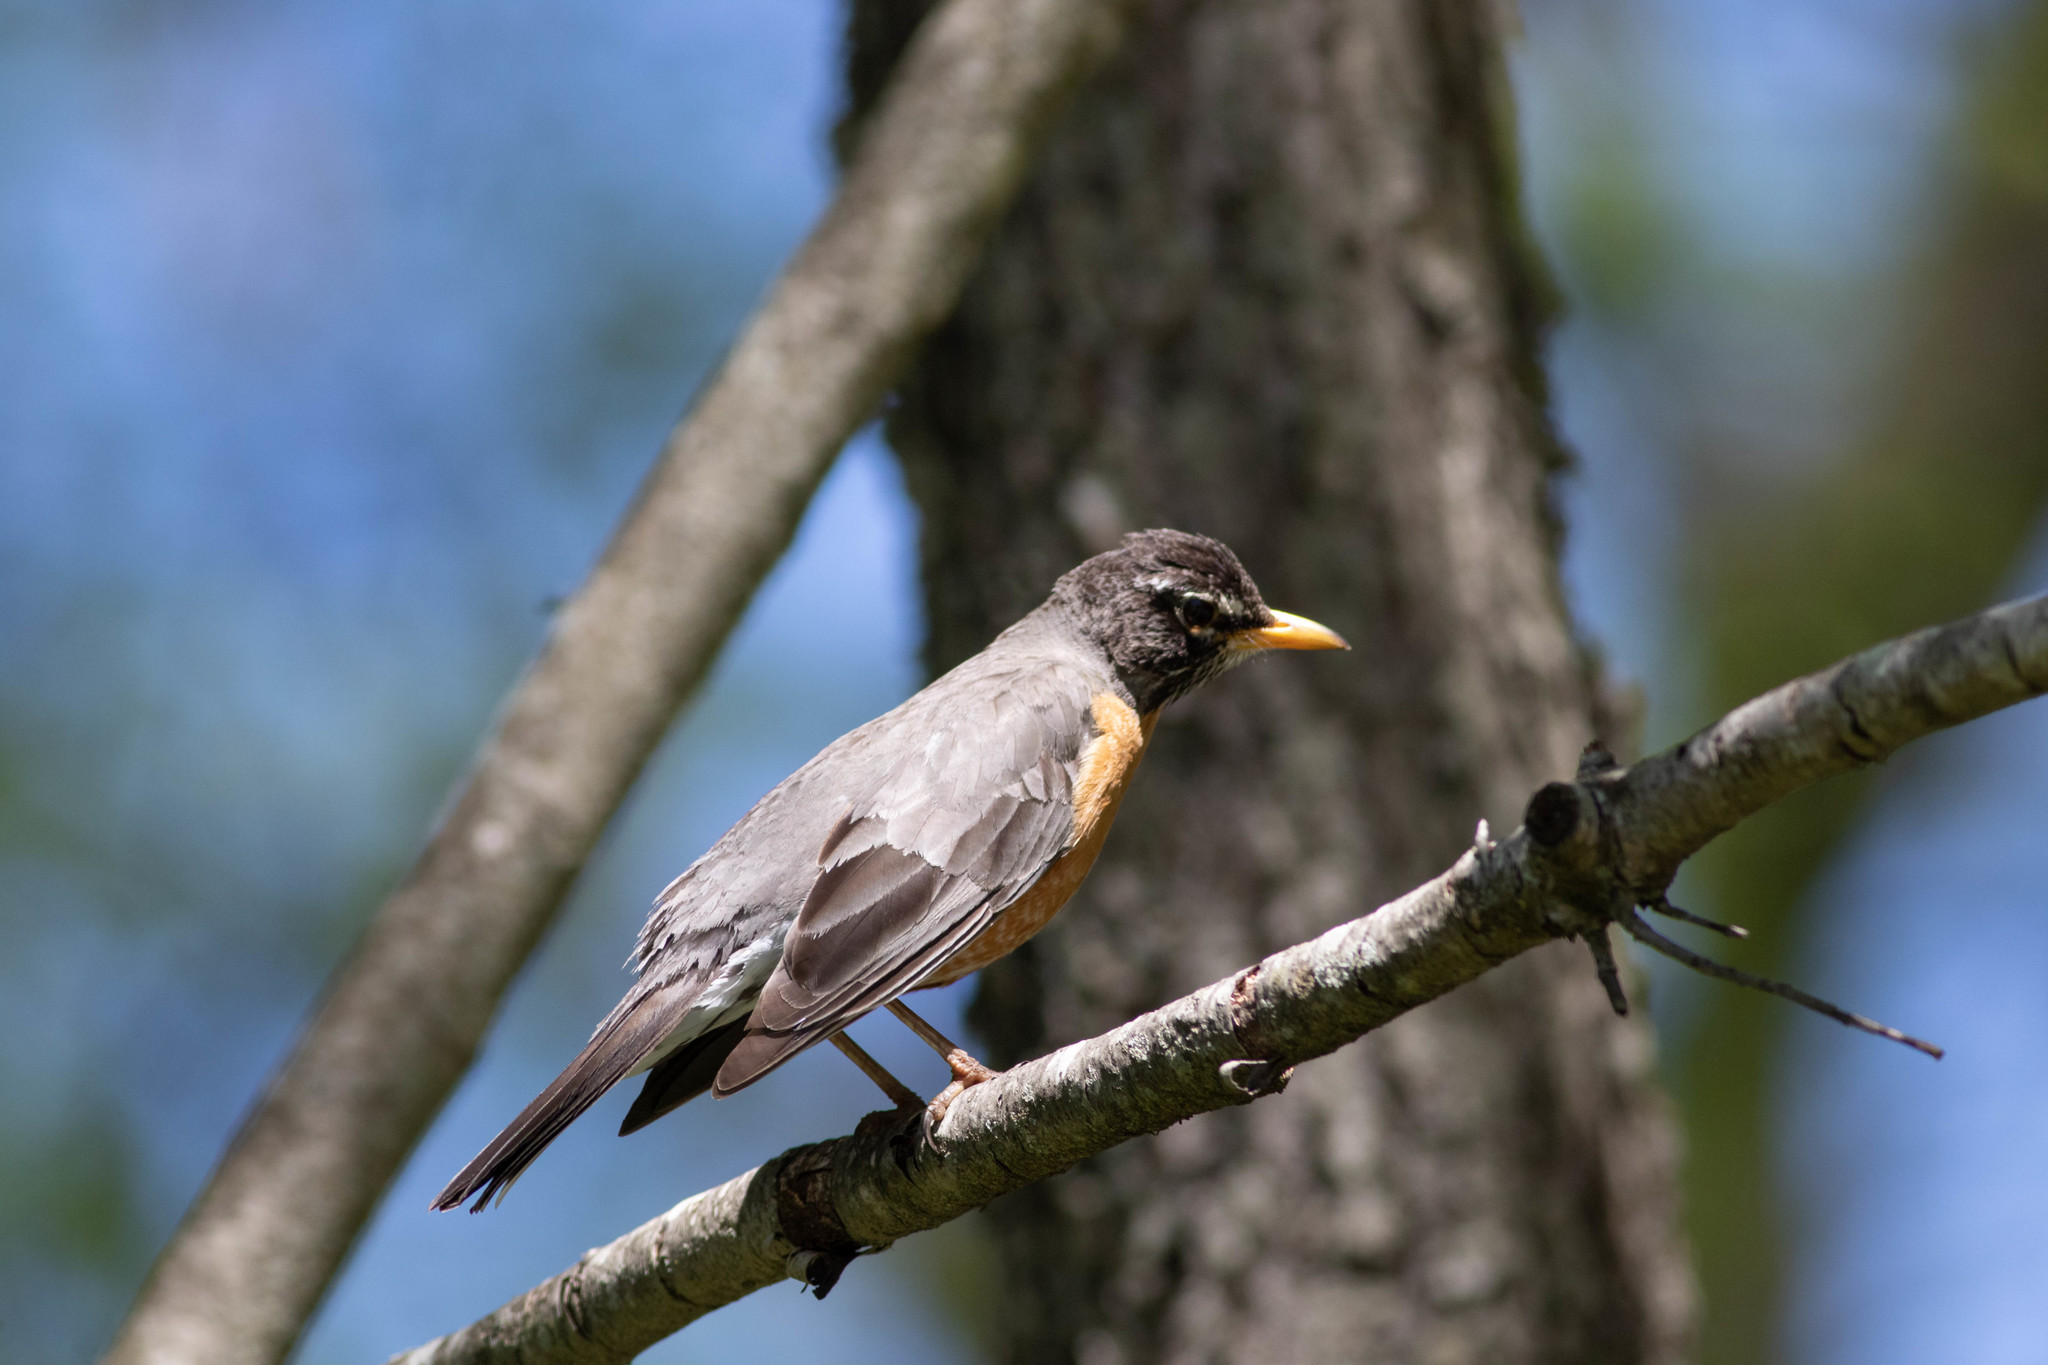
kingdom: Animalia
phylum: Chordata
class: Aves
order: Passeriformes
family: Turdidae
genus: Turdus
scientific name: Turdus migratorius
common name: American robin
